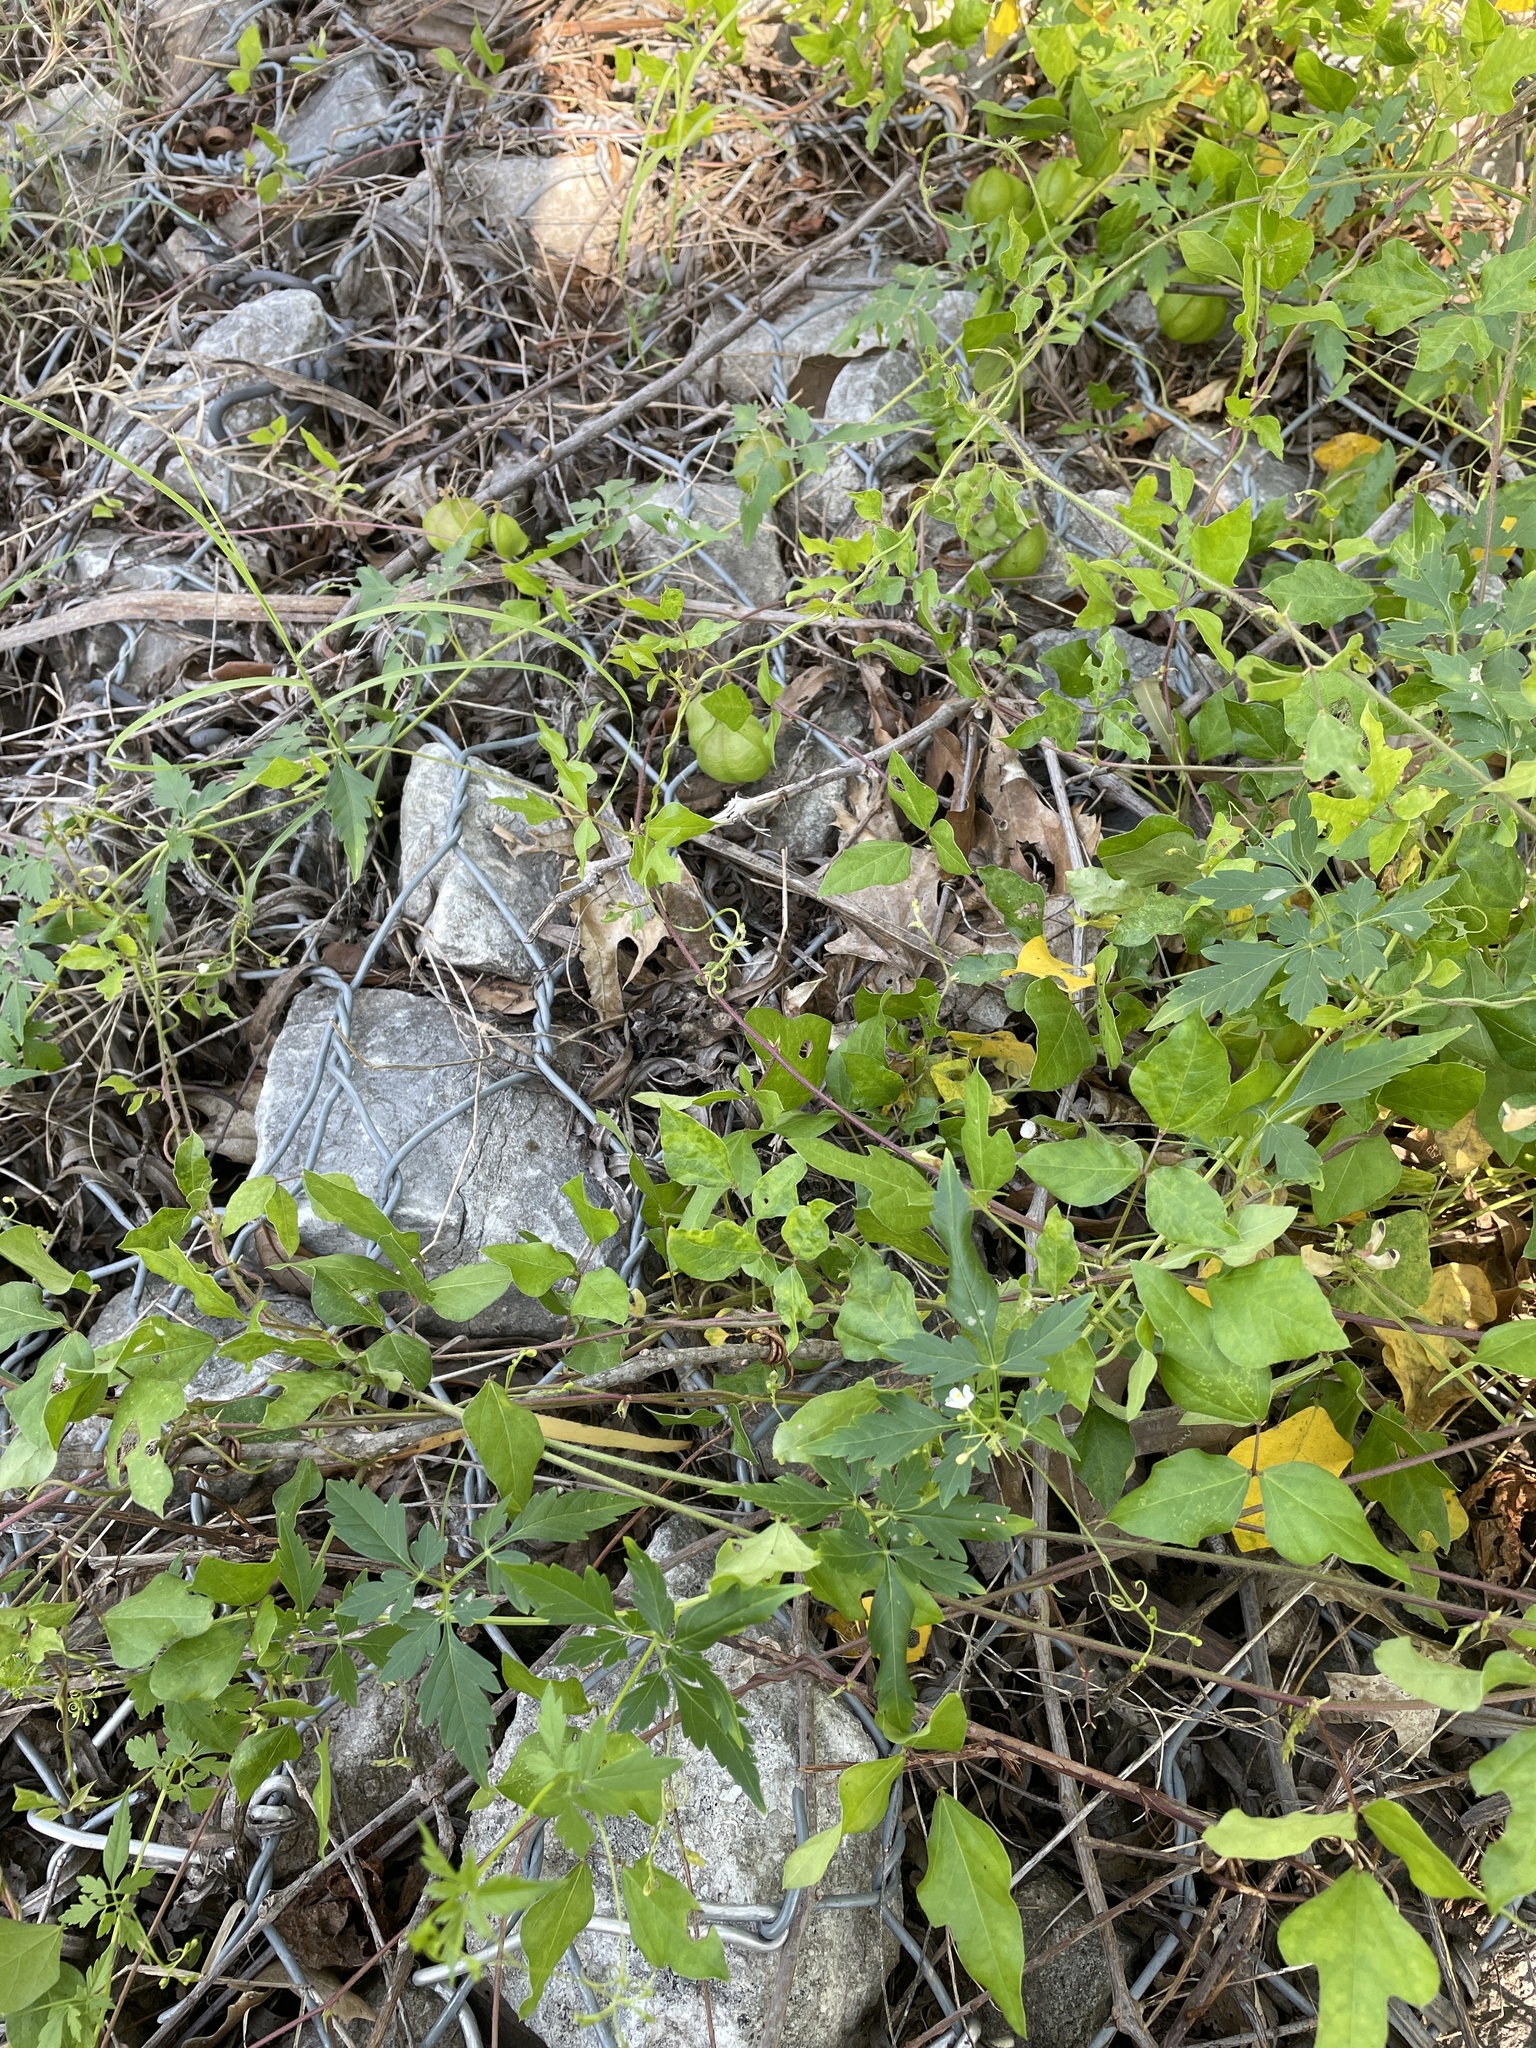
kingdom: Plantae
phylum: Tracheophyta
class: Magnoliopsida
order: Sapindales
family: Sapindaceae
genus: Cardiospermum
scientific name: Cardiospermum halicacabum
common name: Balloon vine
